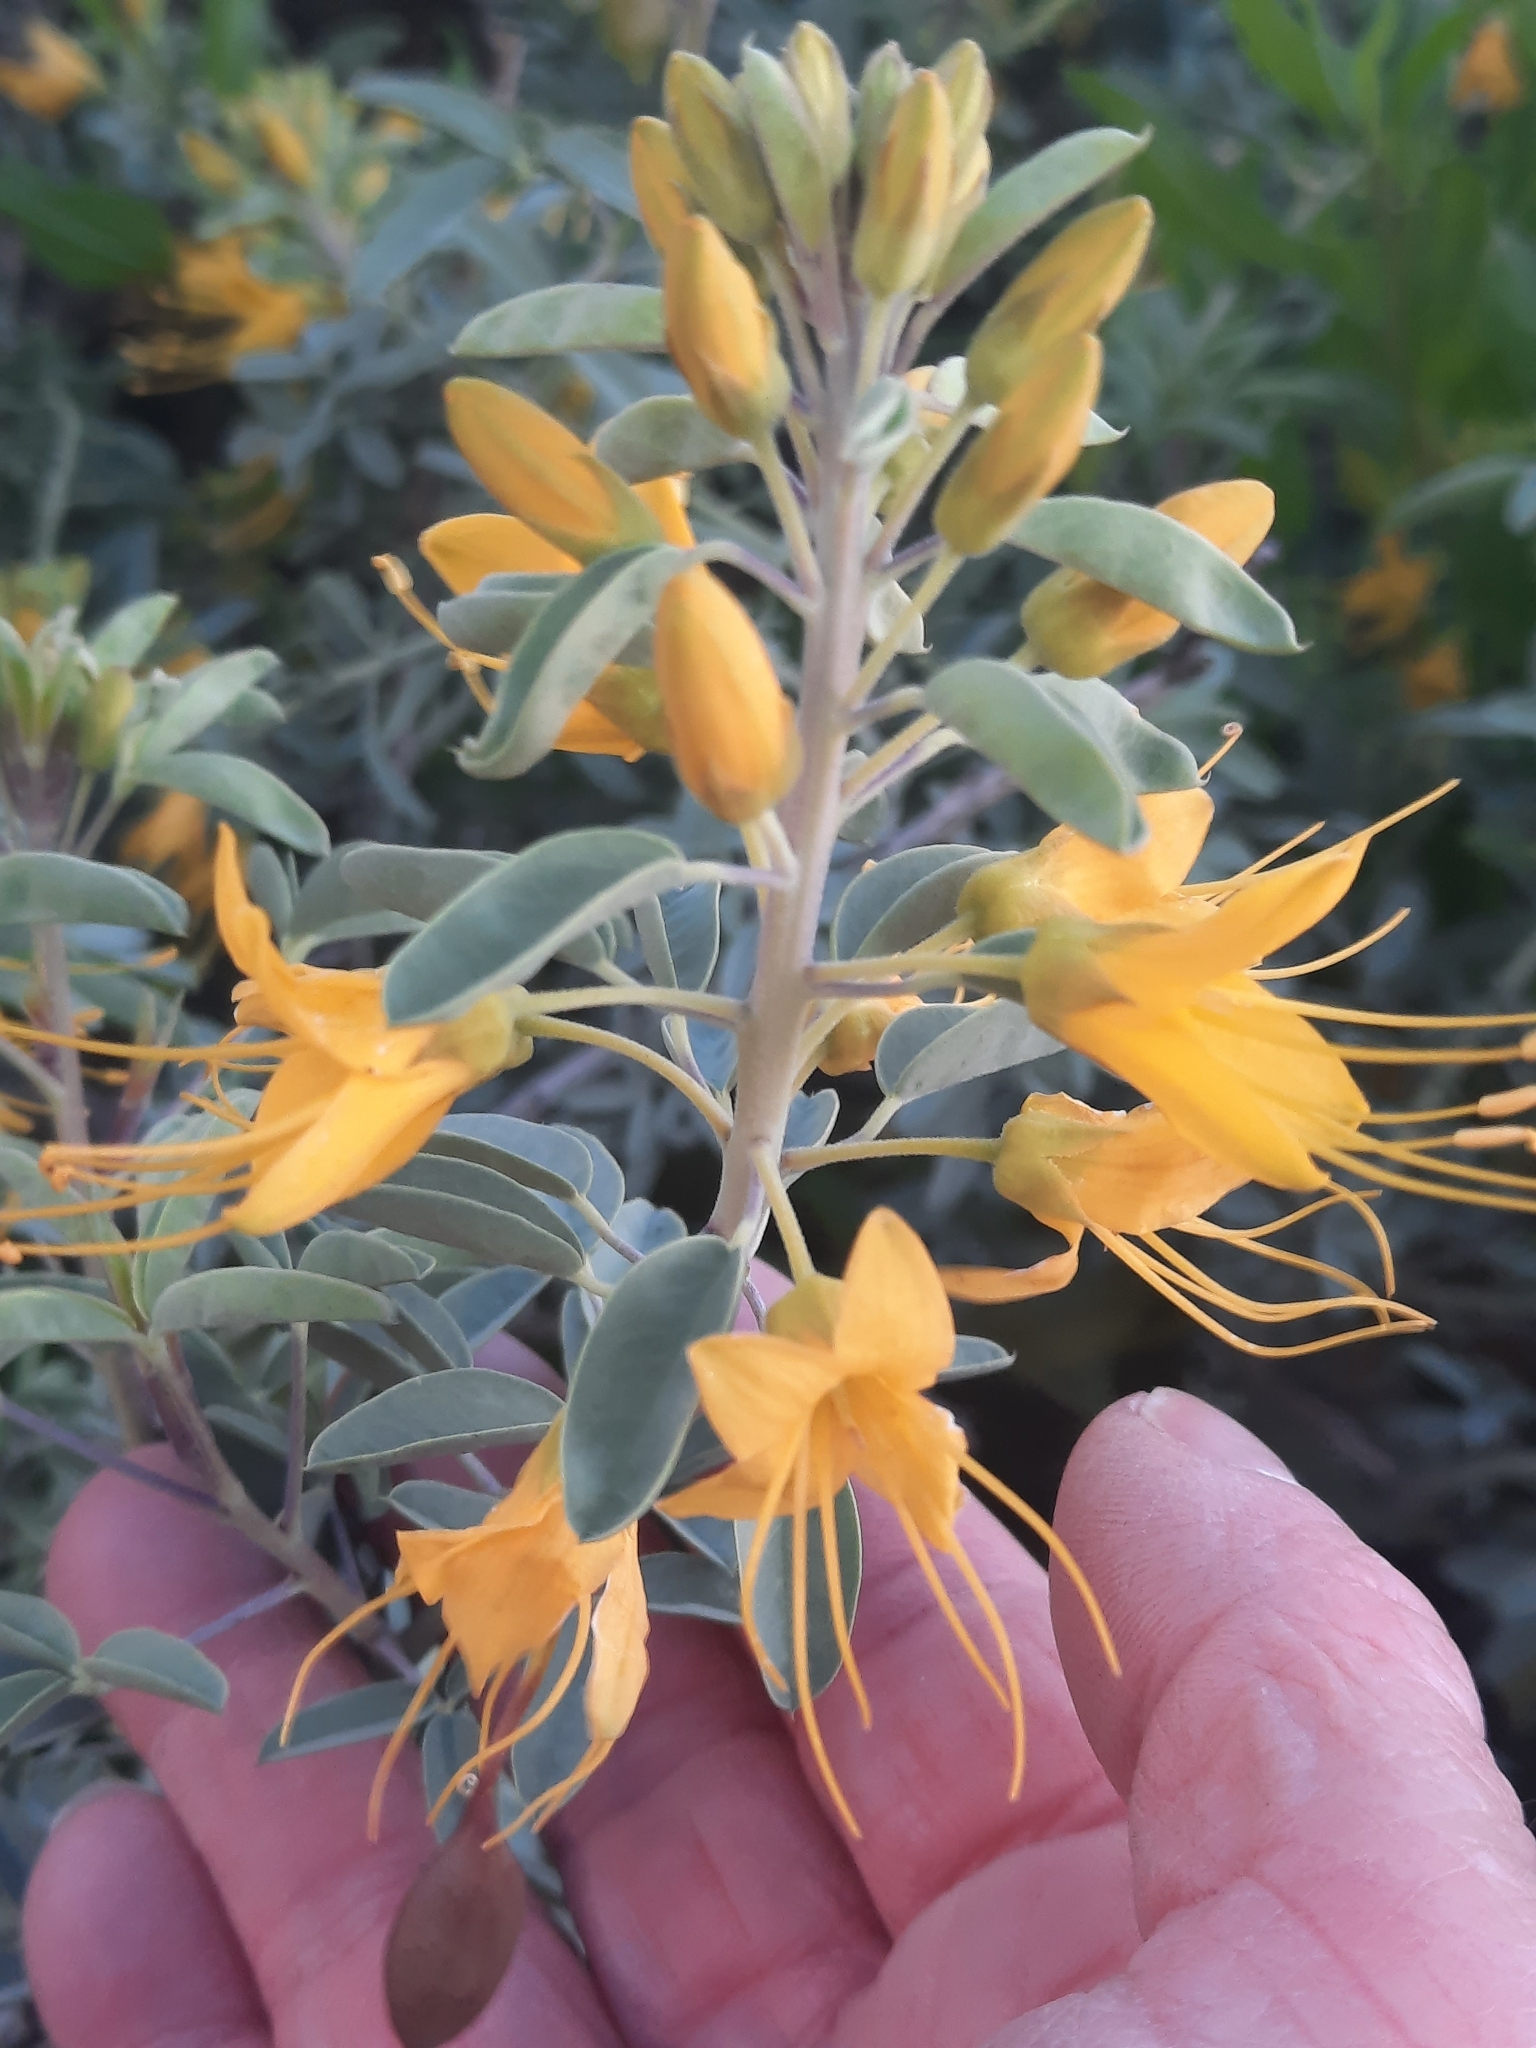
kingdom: Plantae
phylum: Tracheophyta
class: Magnoliopsida
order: Brassicales
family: Cleomaceae
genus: Cleomella
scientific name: Cleomella arborea
